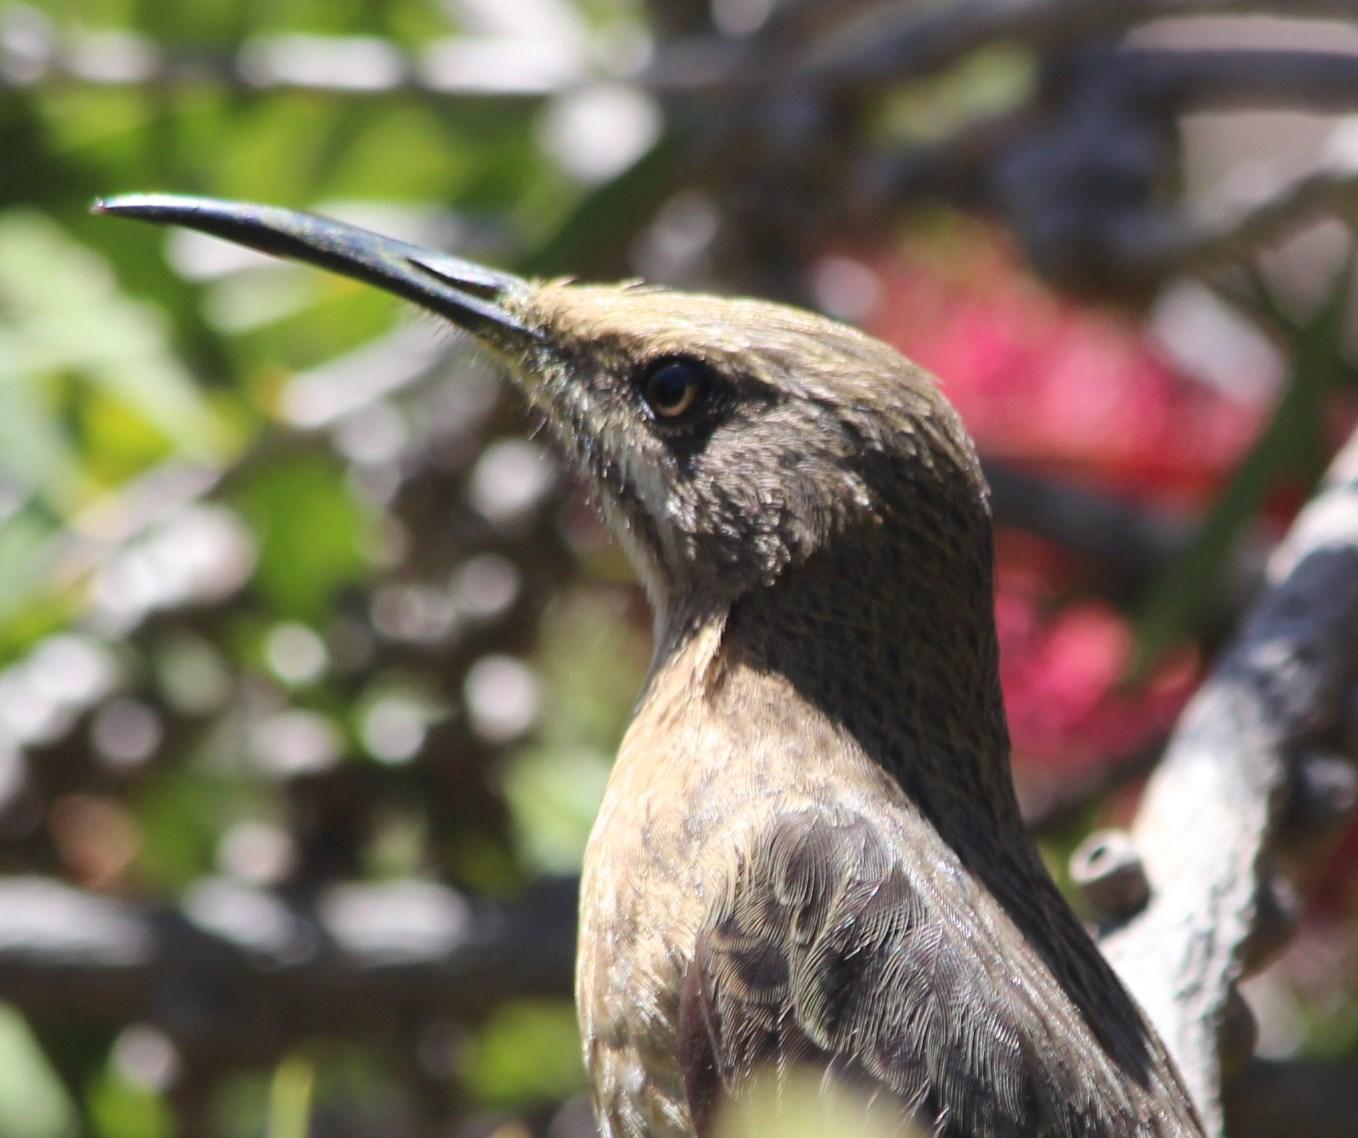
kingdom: Animalia
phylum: Chordata
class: Aves
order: Passeriformes
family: Promeropidae
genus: Promerops
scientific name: Promerops cafer
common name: Cape sugarbird
